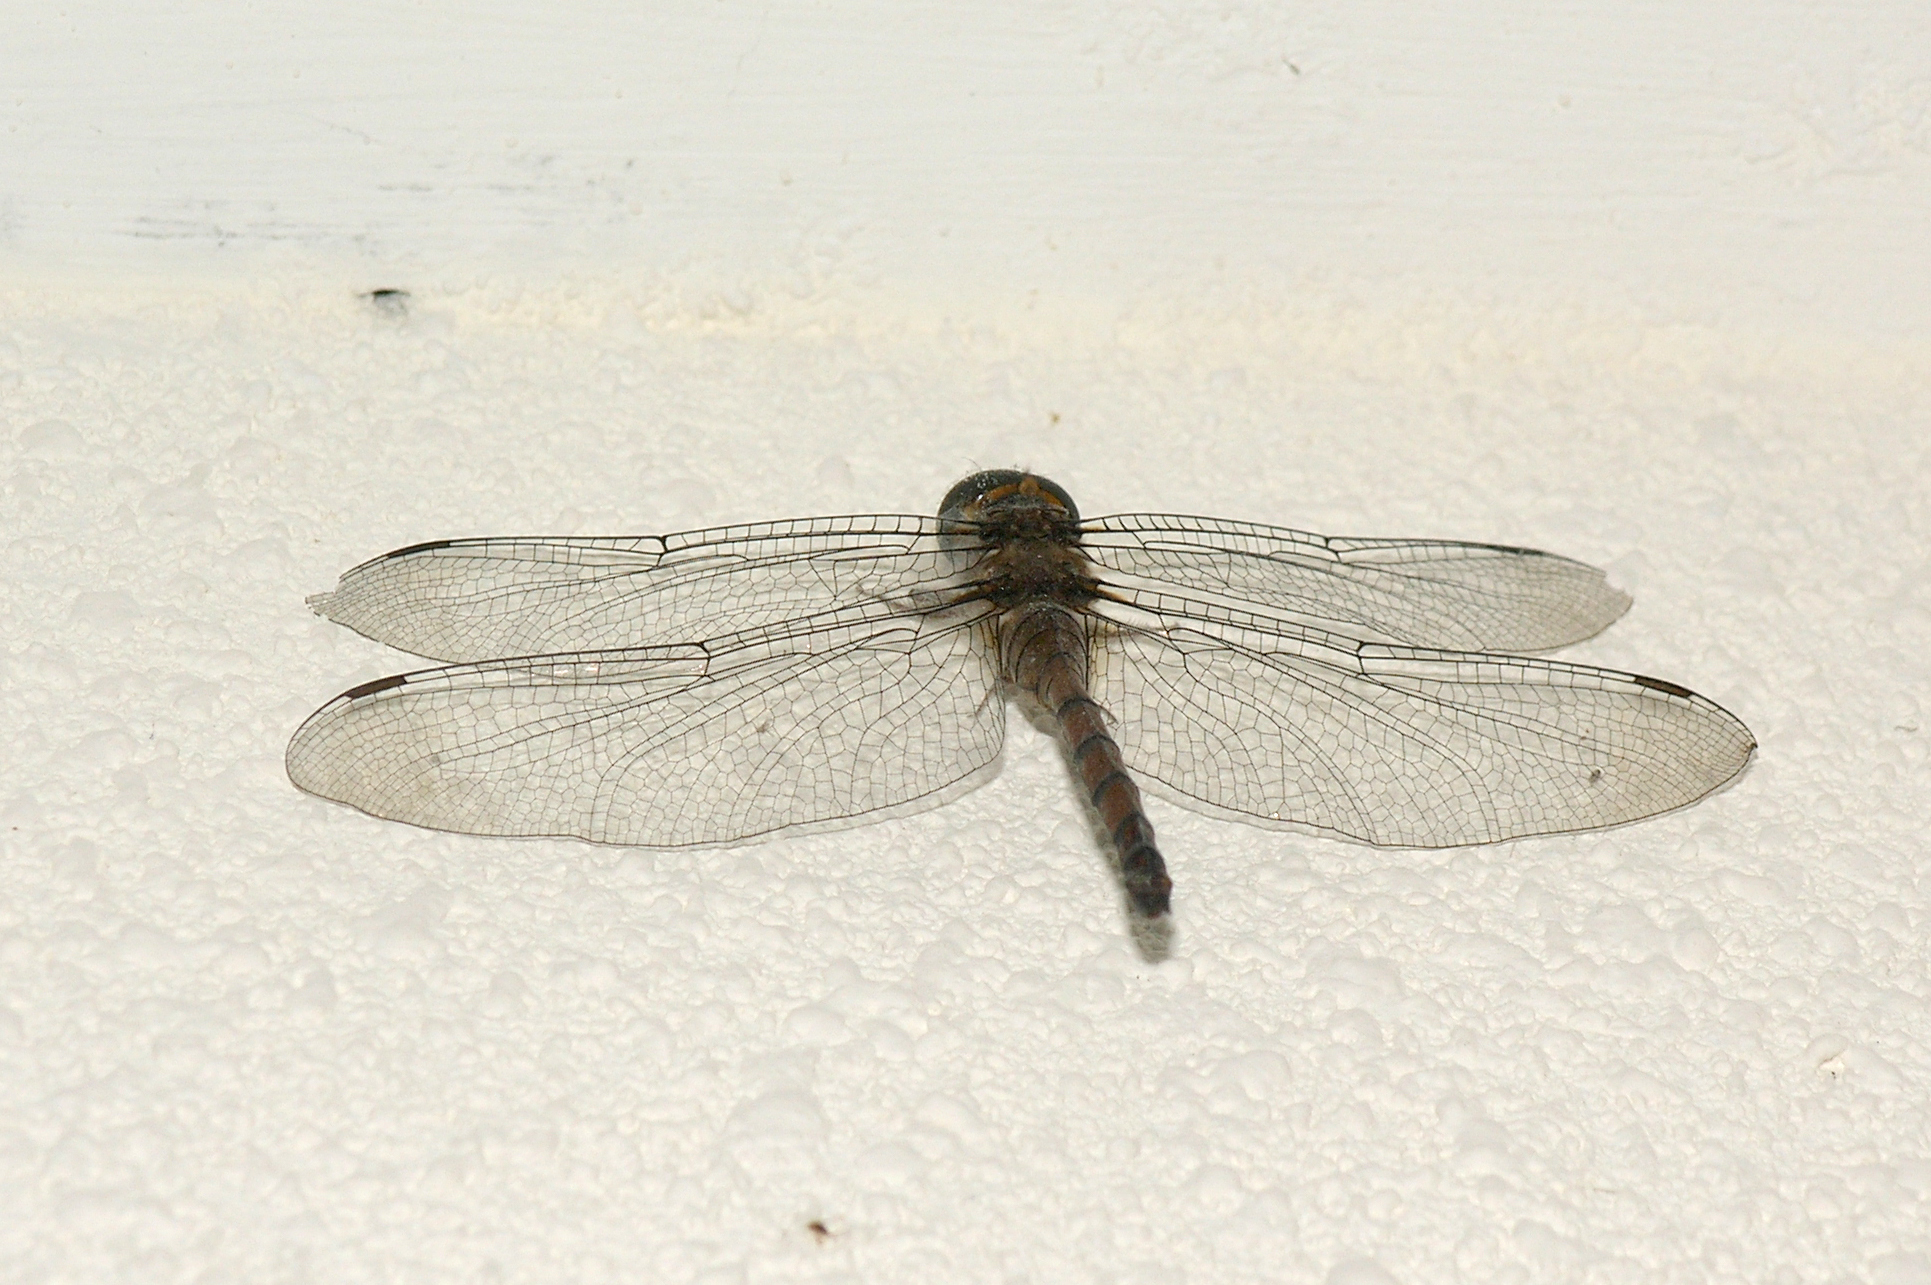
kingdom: Animalia
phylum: Arthropoda
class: Insecta
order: Odonata
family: Libellulidae
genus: Zyxomma
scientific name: Zyxomma obtusum
